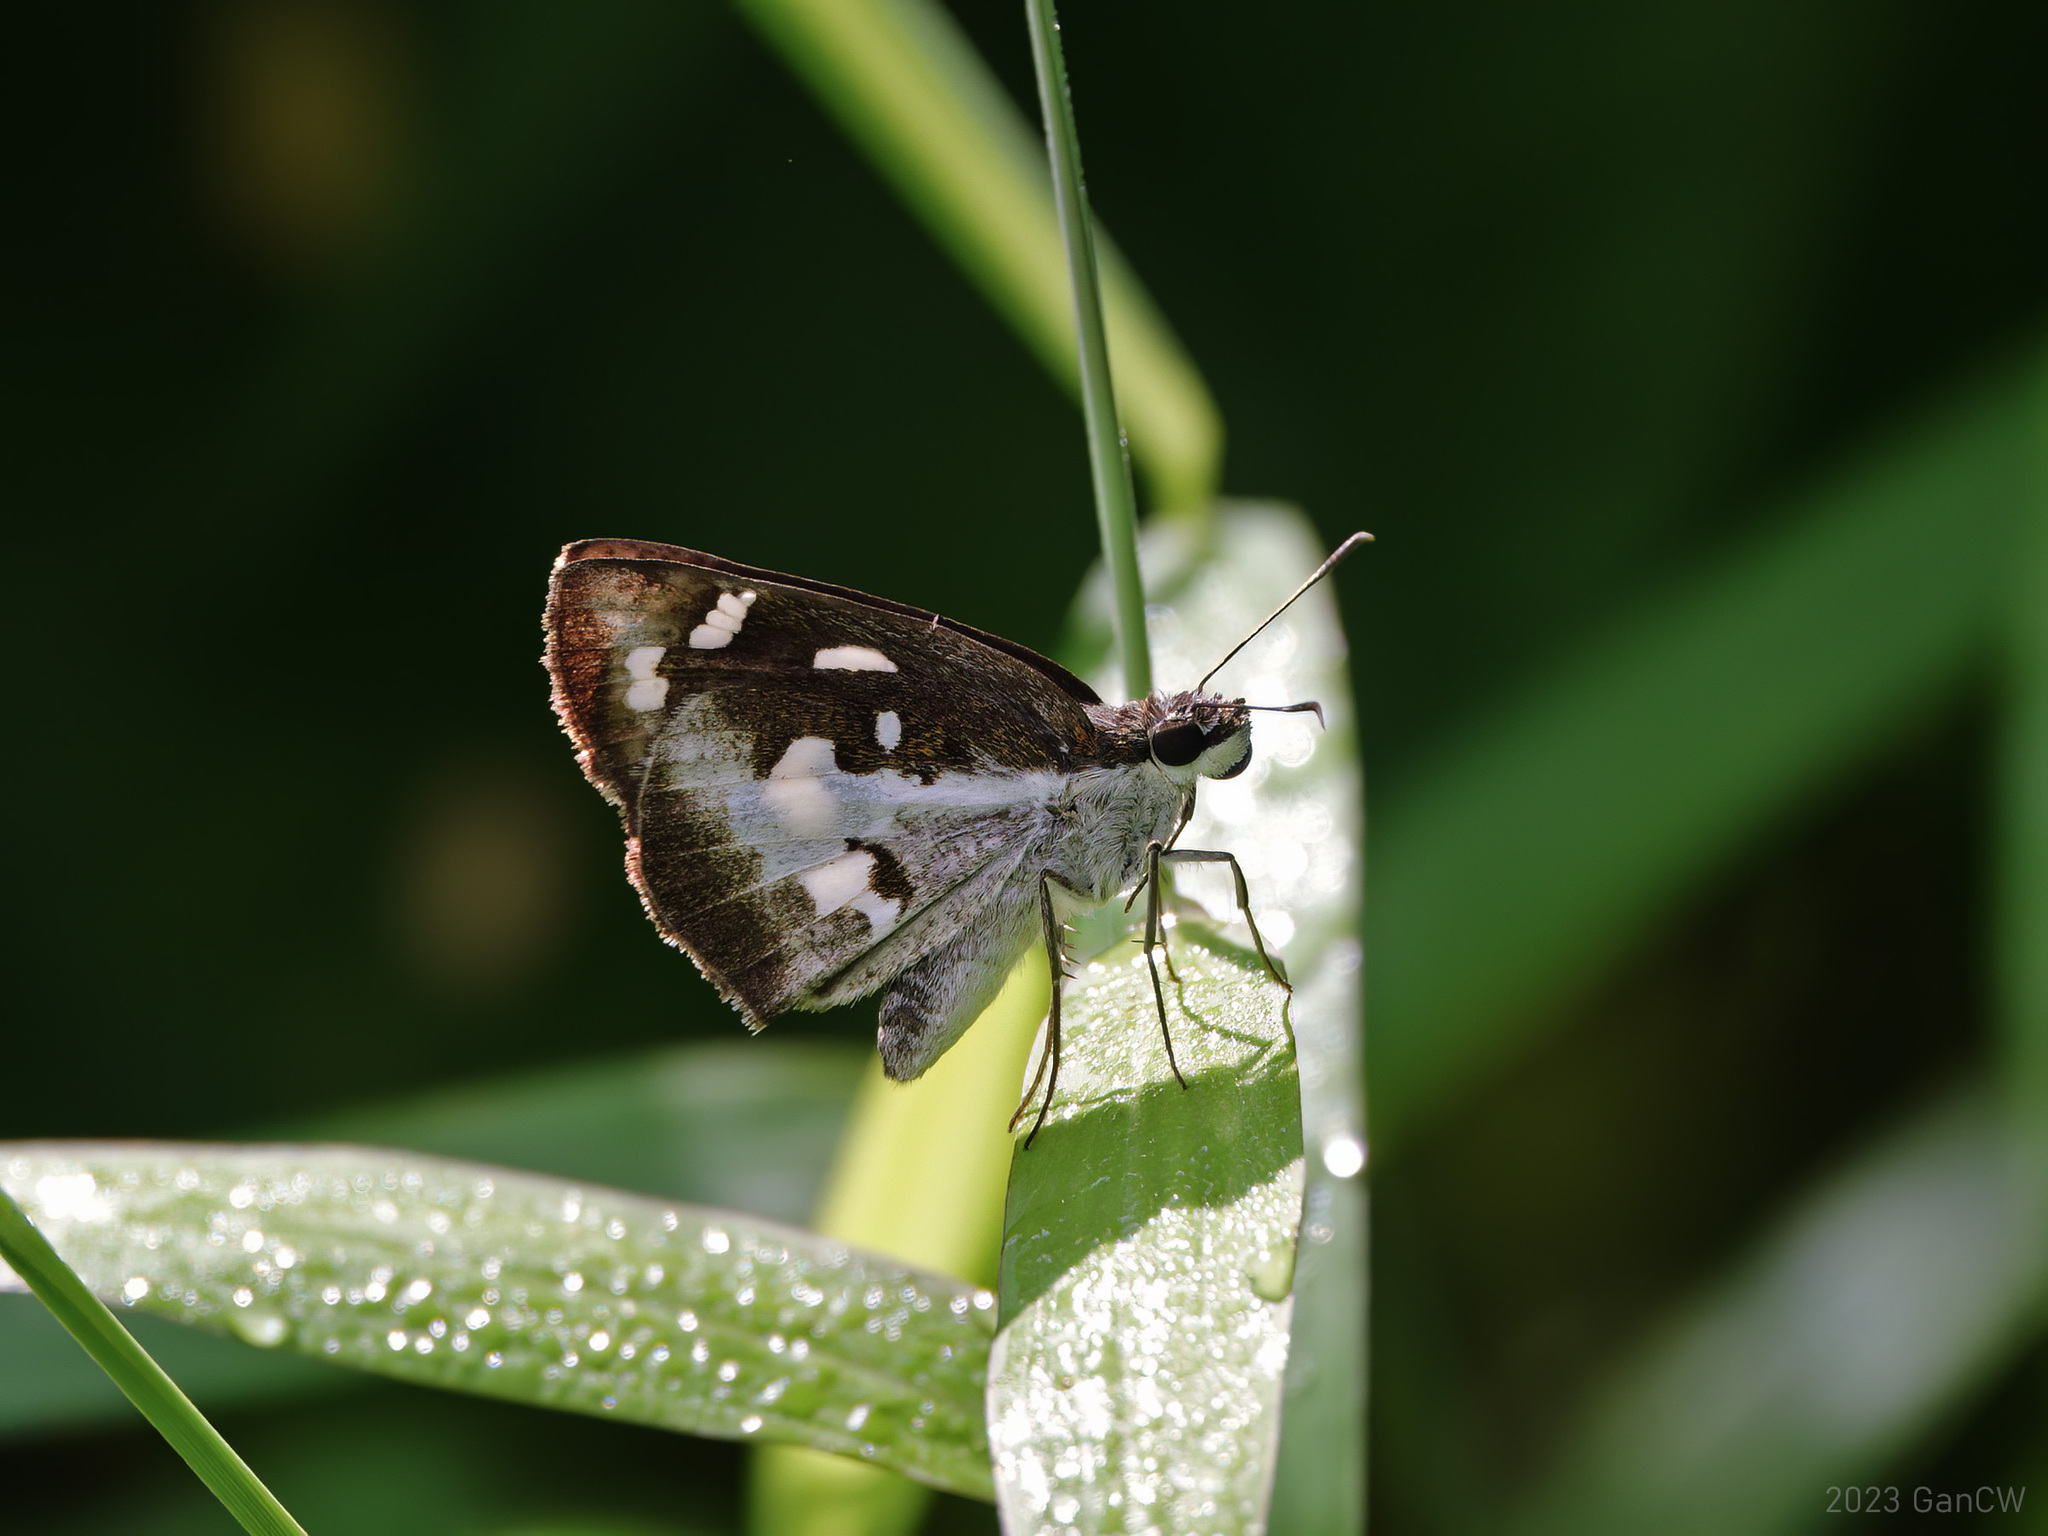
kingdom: Animalia
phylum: Arthropoda
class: Insecta
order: Lepidoptera
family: Hesperiidae
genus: Udaspes
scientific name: Udaspes folus
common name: Grass demon
